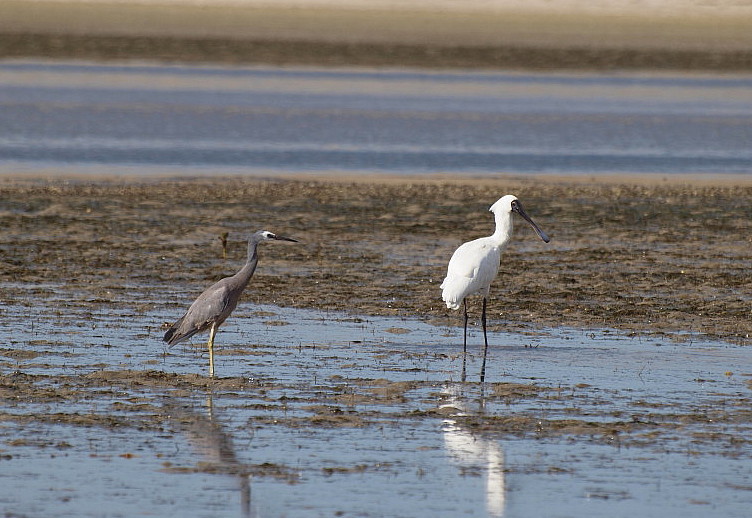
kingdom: Animalia
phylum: Chordata
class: Aves
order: Pelecaniformes
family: Threskiornithidae
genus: Platalea
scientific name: Platalea regia
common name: Royal spoonbill
